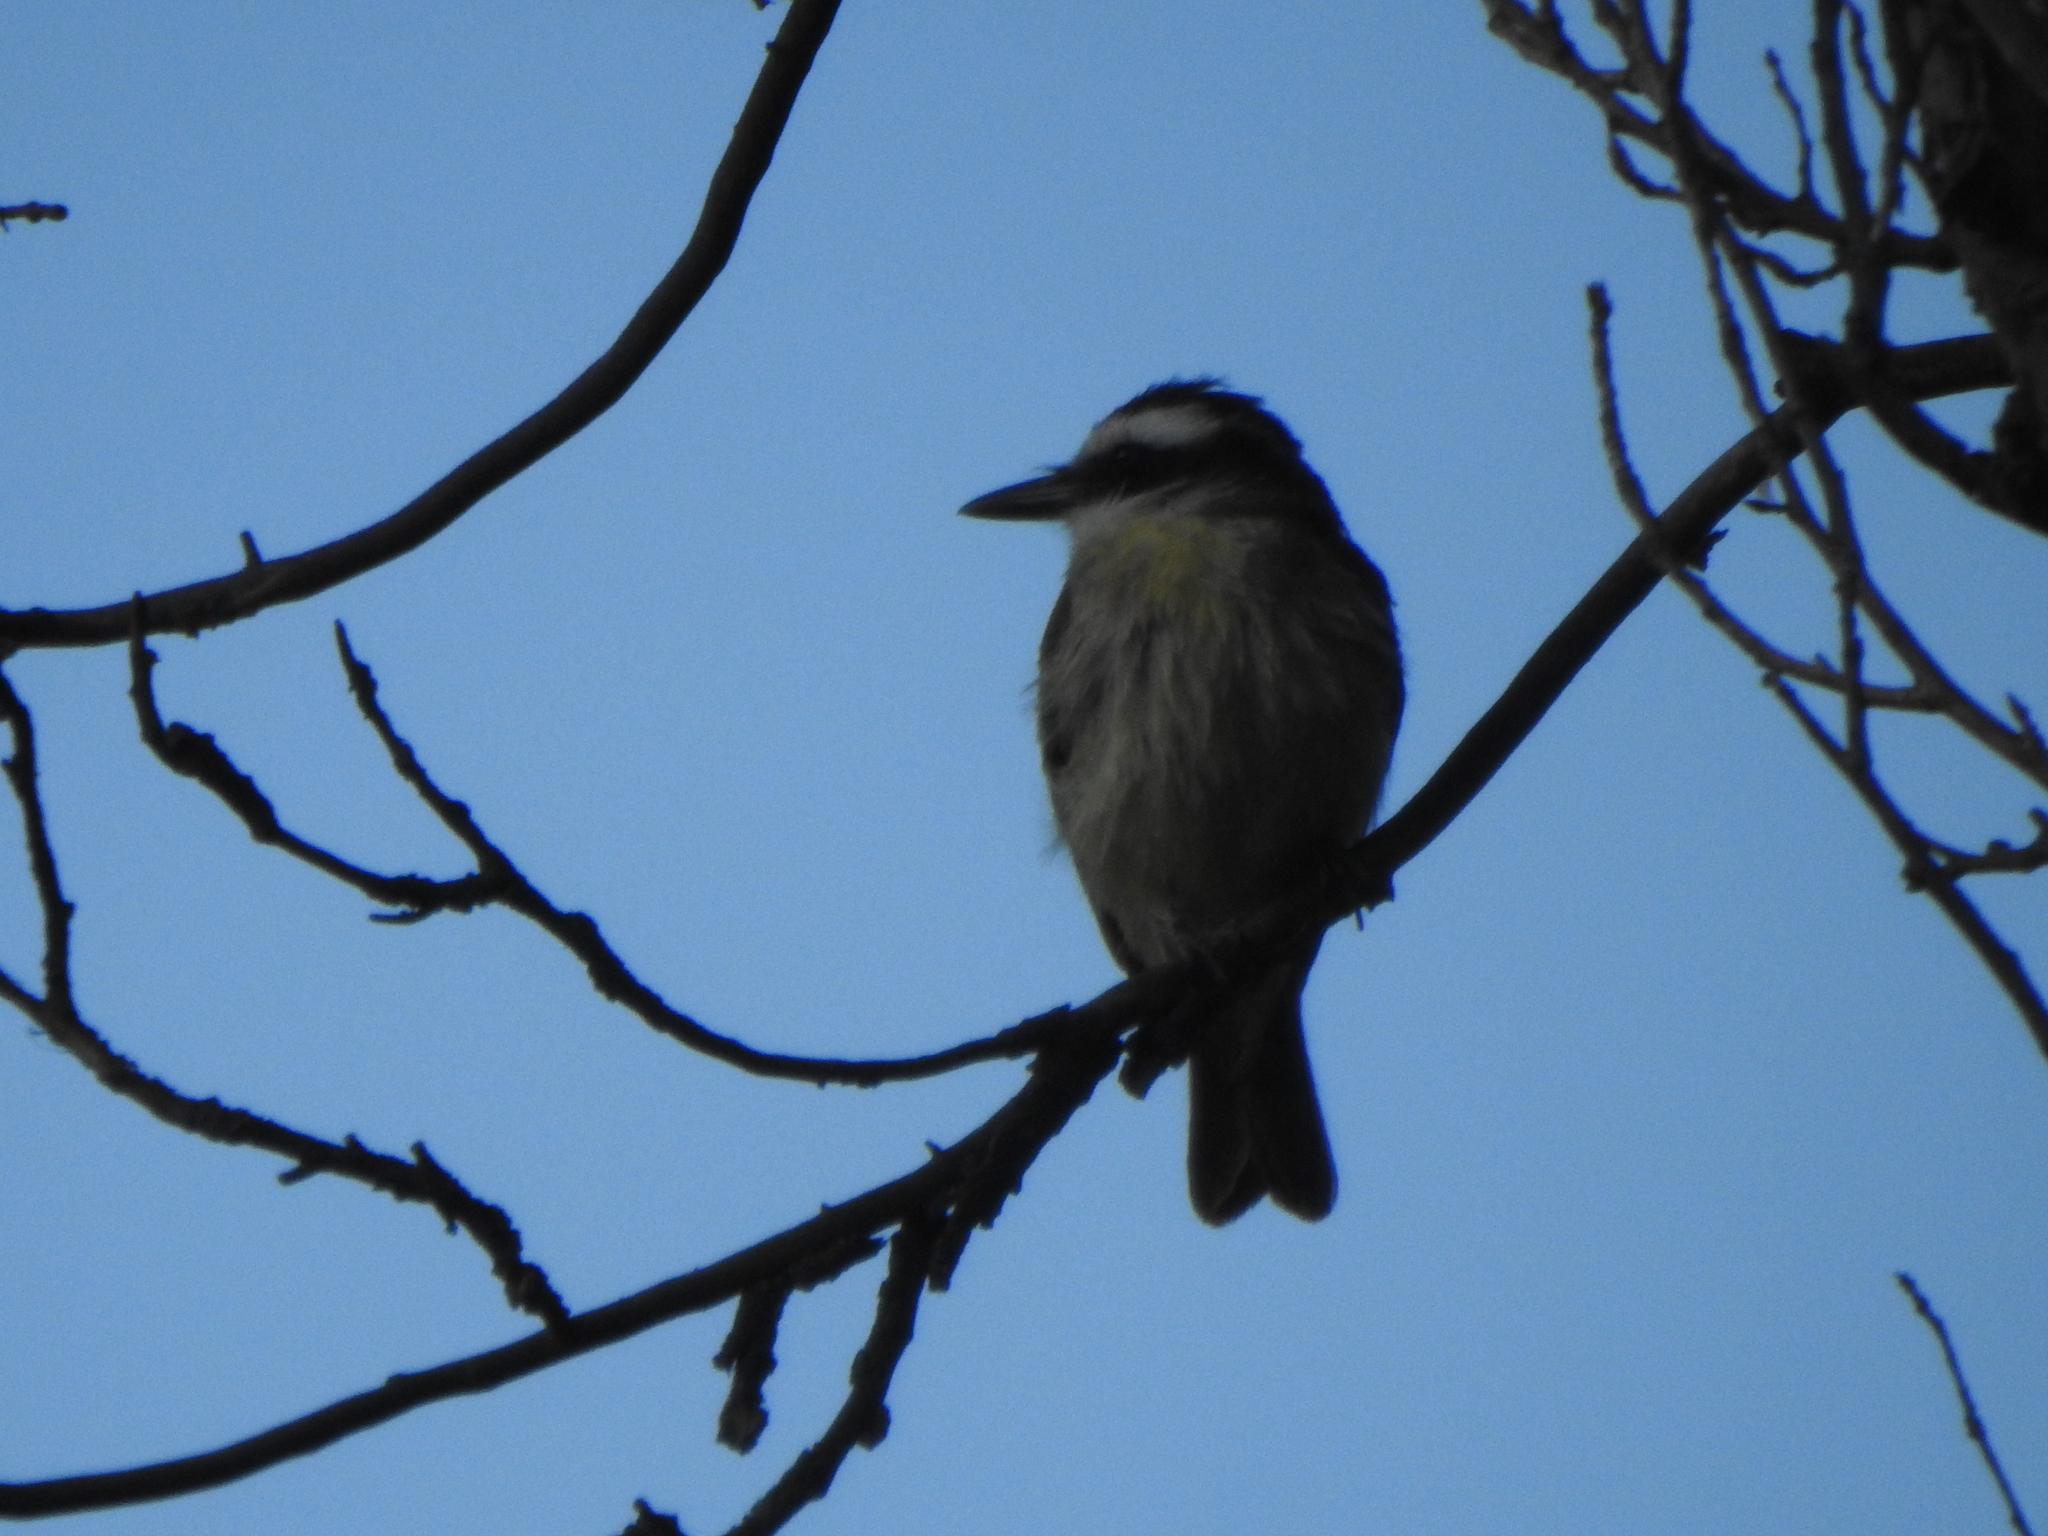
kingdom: Animalia
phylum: Chordata
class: Aves
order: Passeriformes
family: Tyrannidae
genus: Pitangus
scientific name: Pitangus sulphuratus
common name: Great kiskadee
